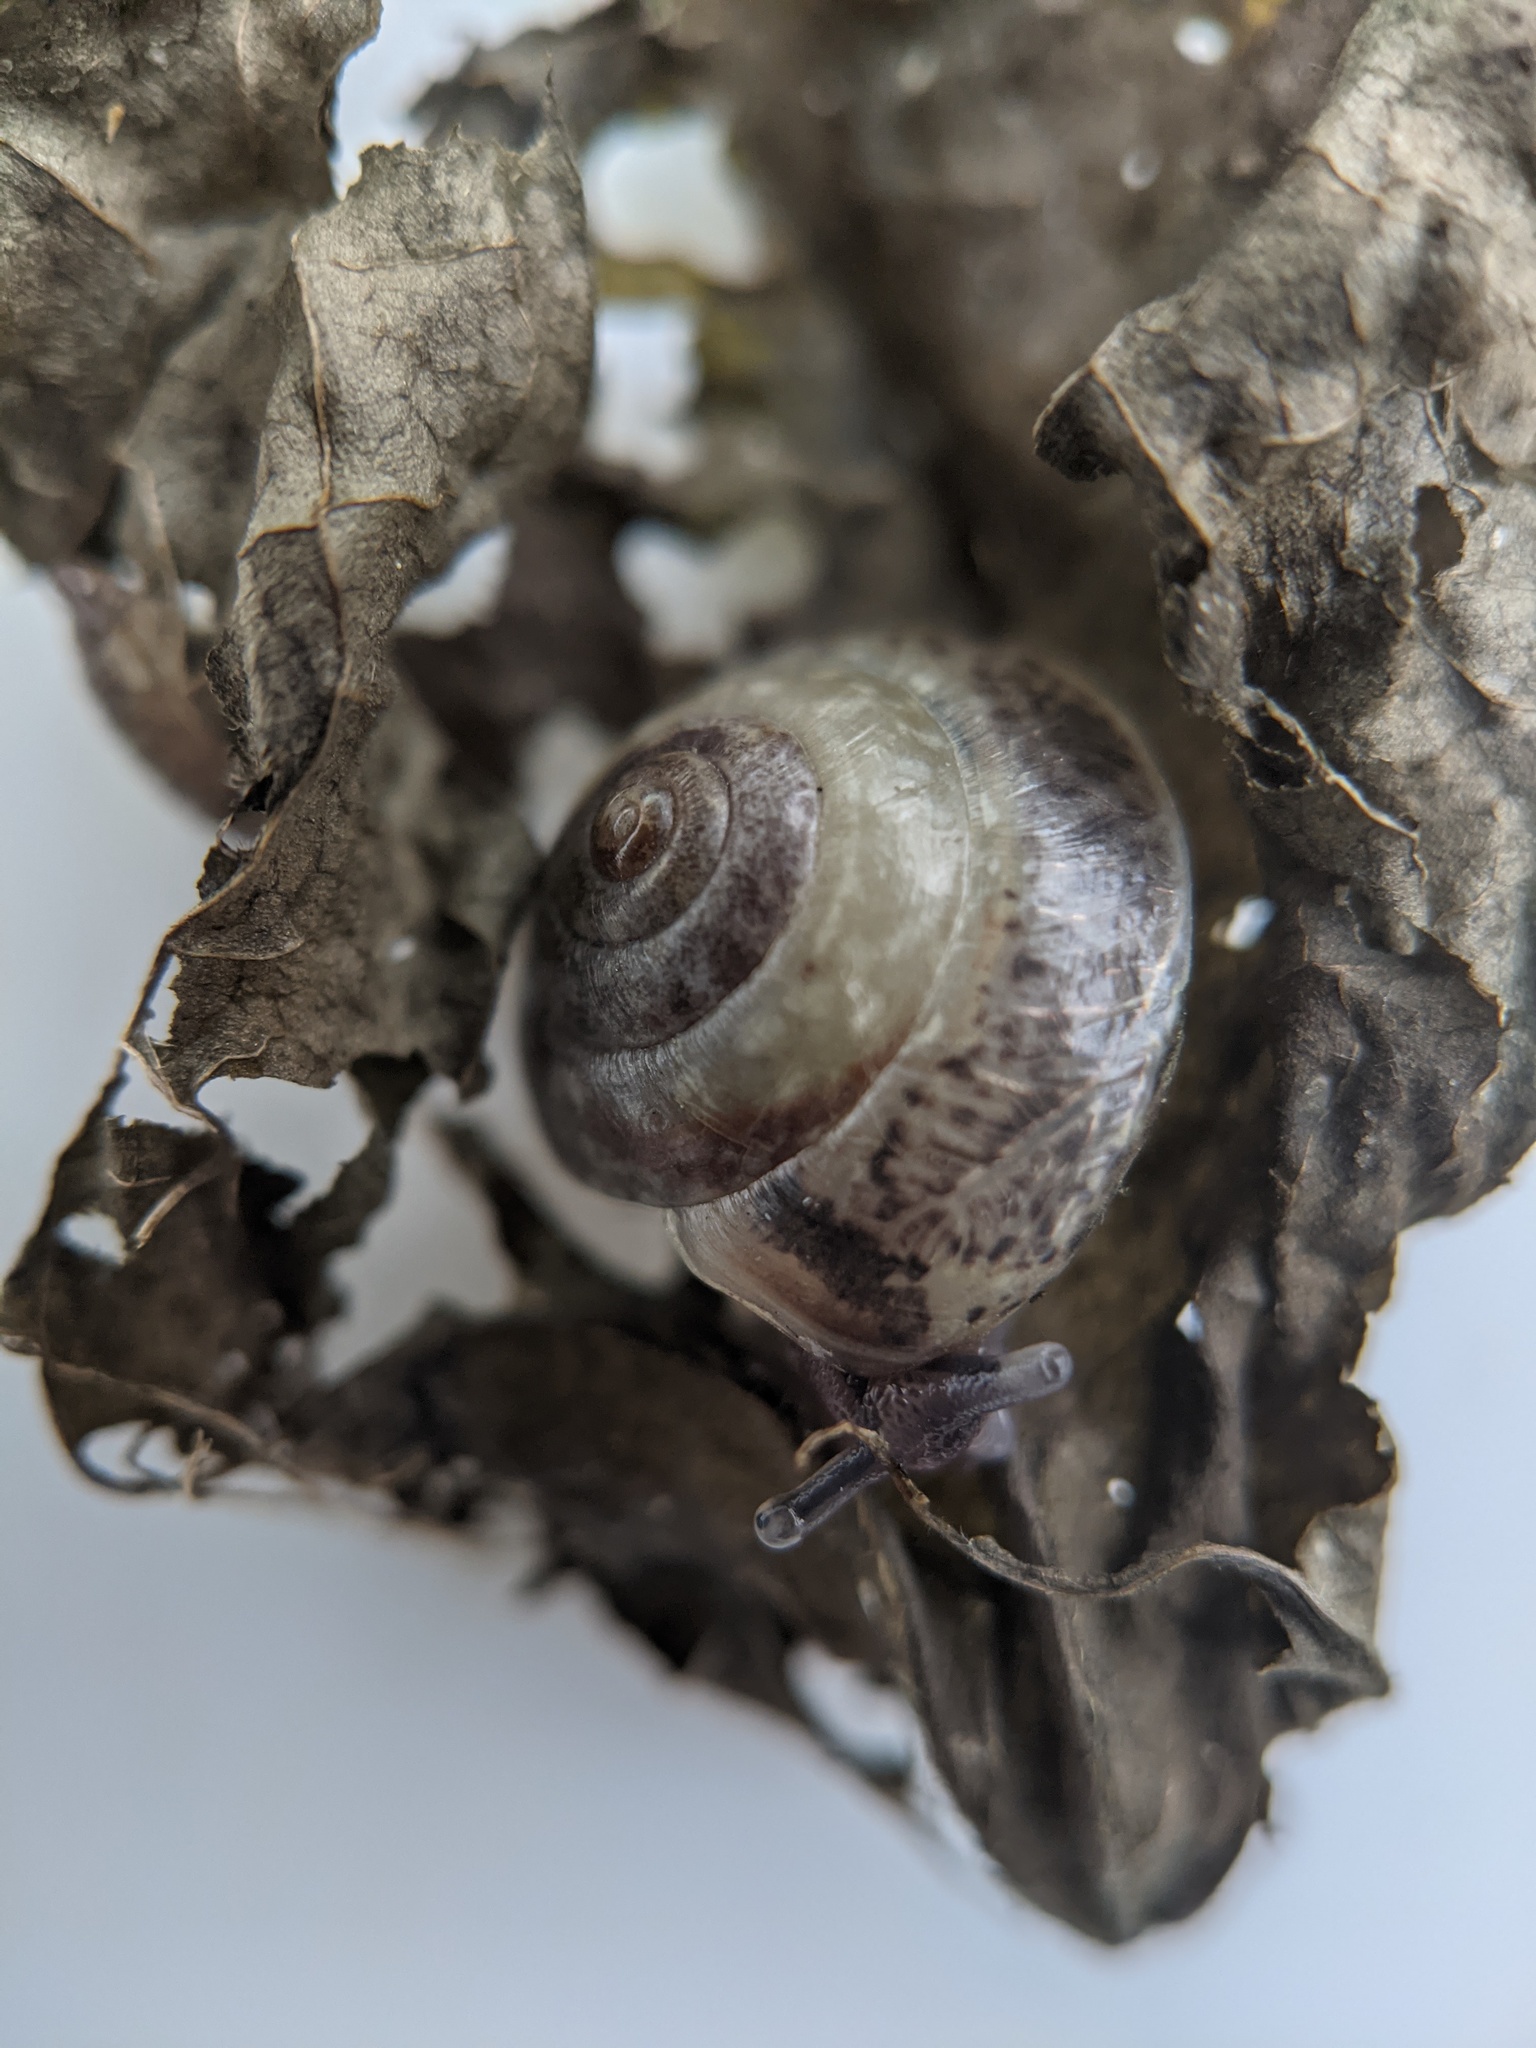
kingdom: Animalia
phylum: Mollusca
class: Gastropoda
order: Stylommatophora
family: Hygromiidae
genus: Hygromia
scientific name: Hygromia cinctella
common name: Girdled snail
